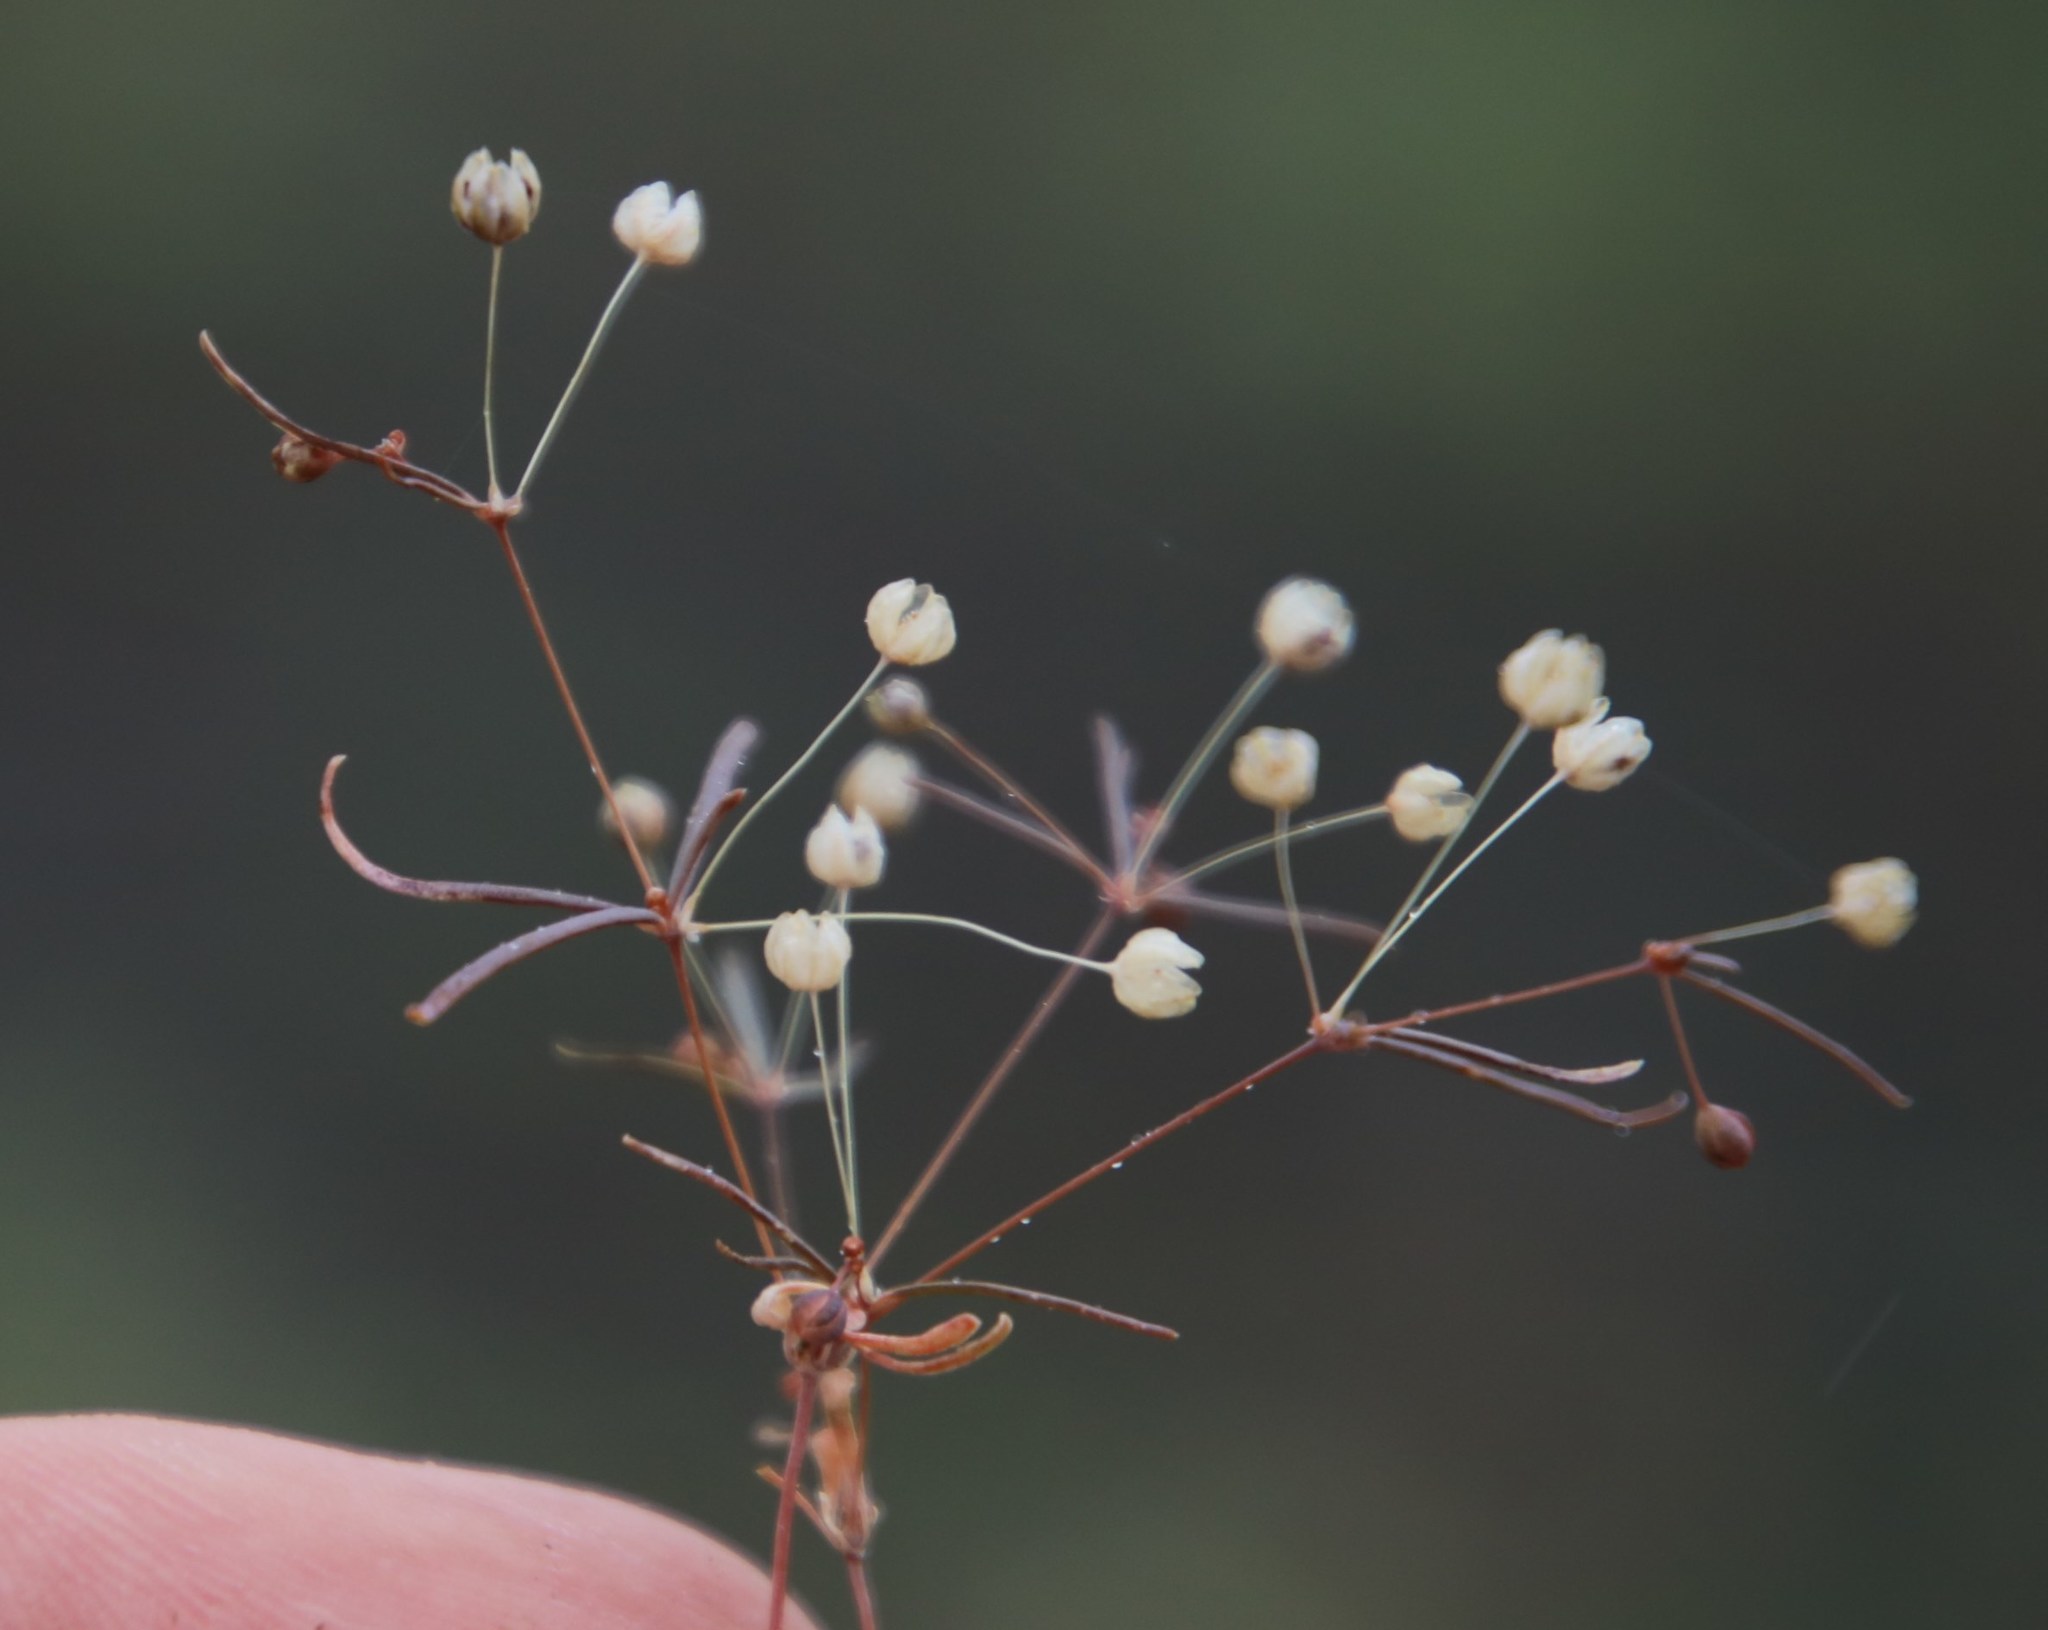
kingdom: Plantae
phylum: Tracheophyta
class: Magnoliopsida
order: Caryophyllales
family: Molluginaceae
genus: Hypertelis
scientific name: Hypertelis cerviana
